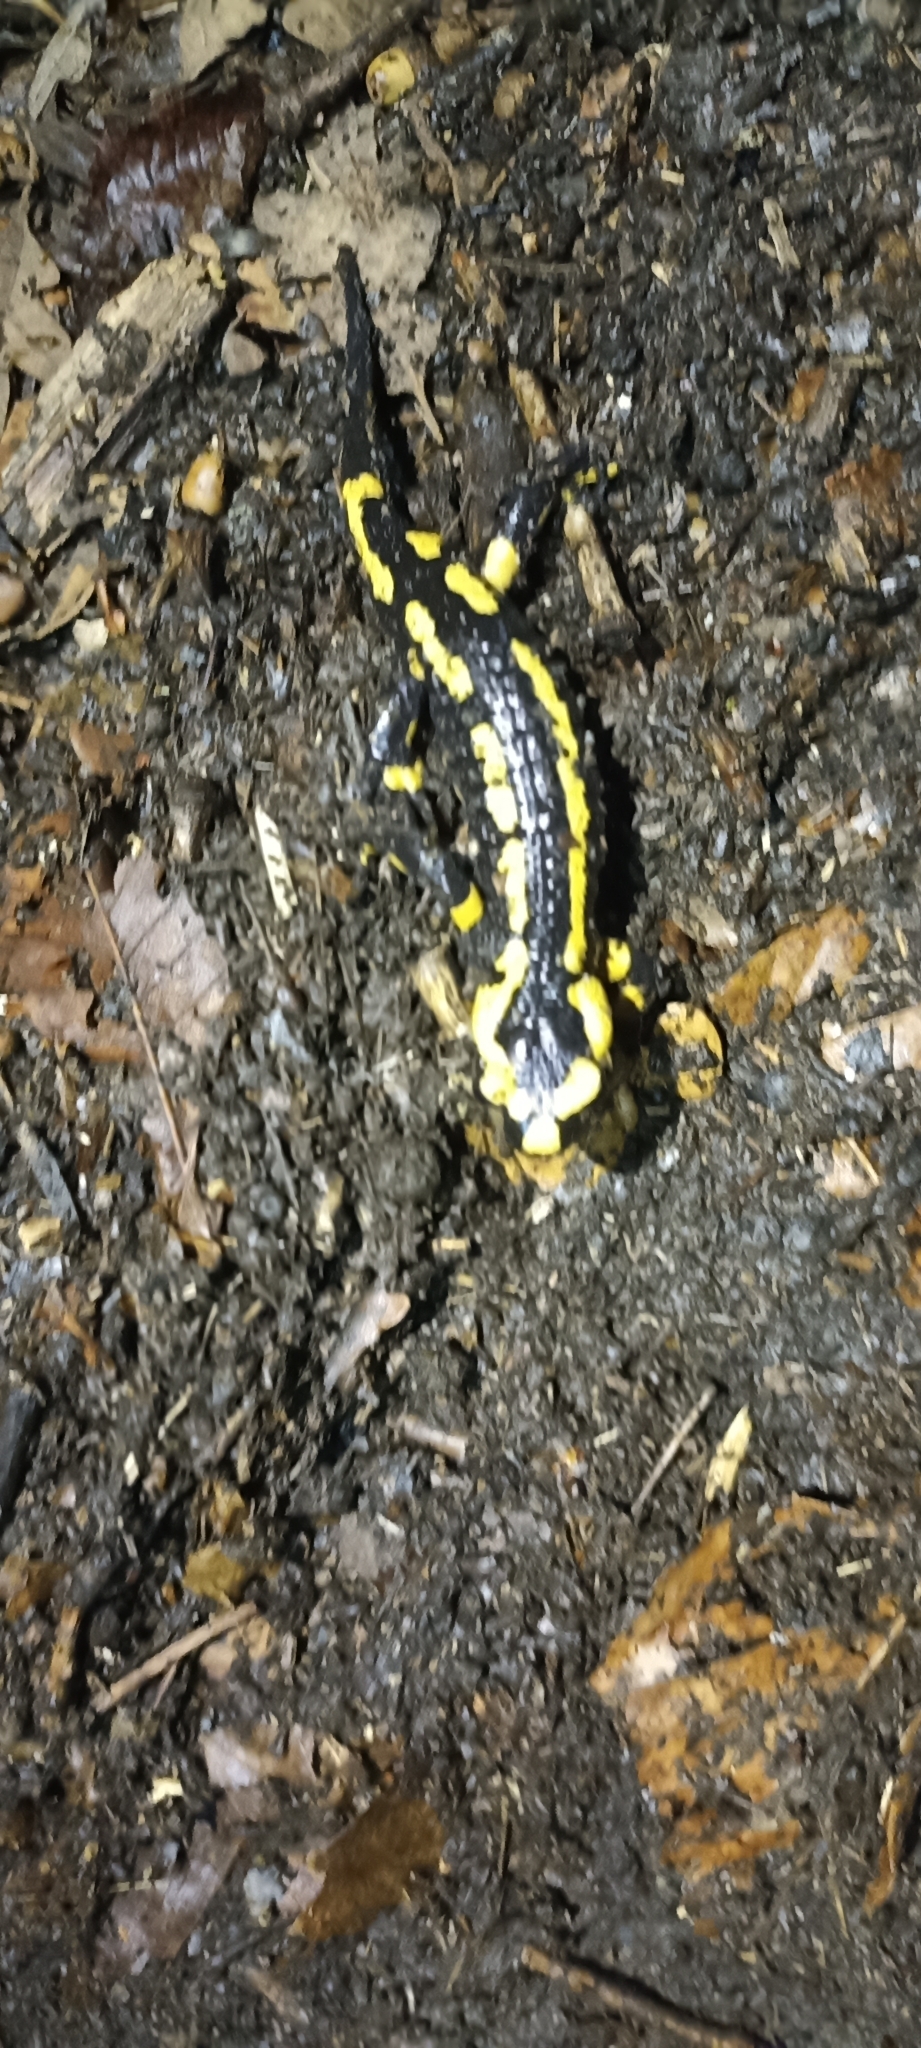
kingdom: Animalia
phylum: Chordata
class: Amphibia
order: Caudata
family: Salamandridae
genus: Salamandra
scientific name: Salamandra salamandra
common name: Fire salamander
